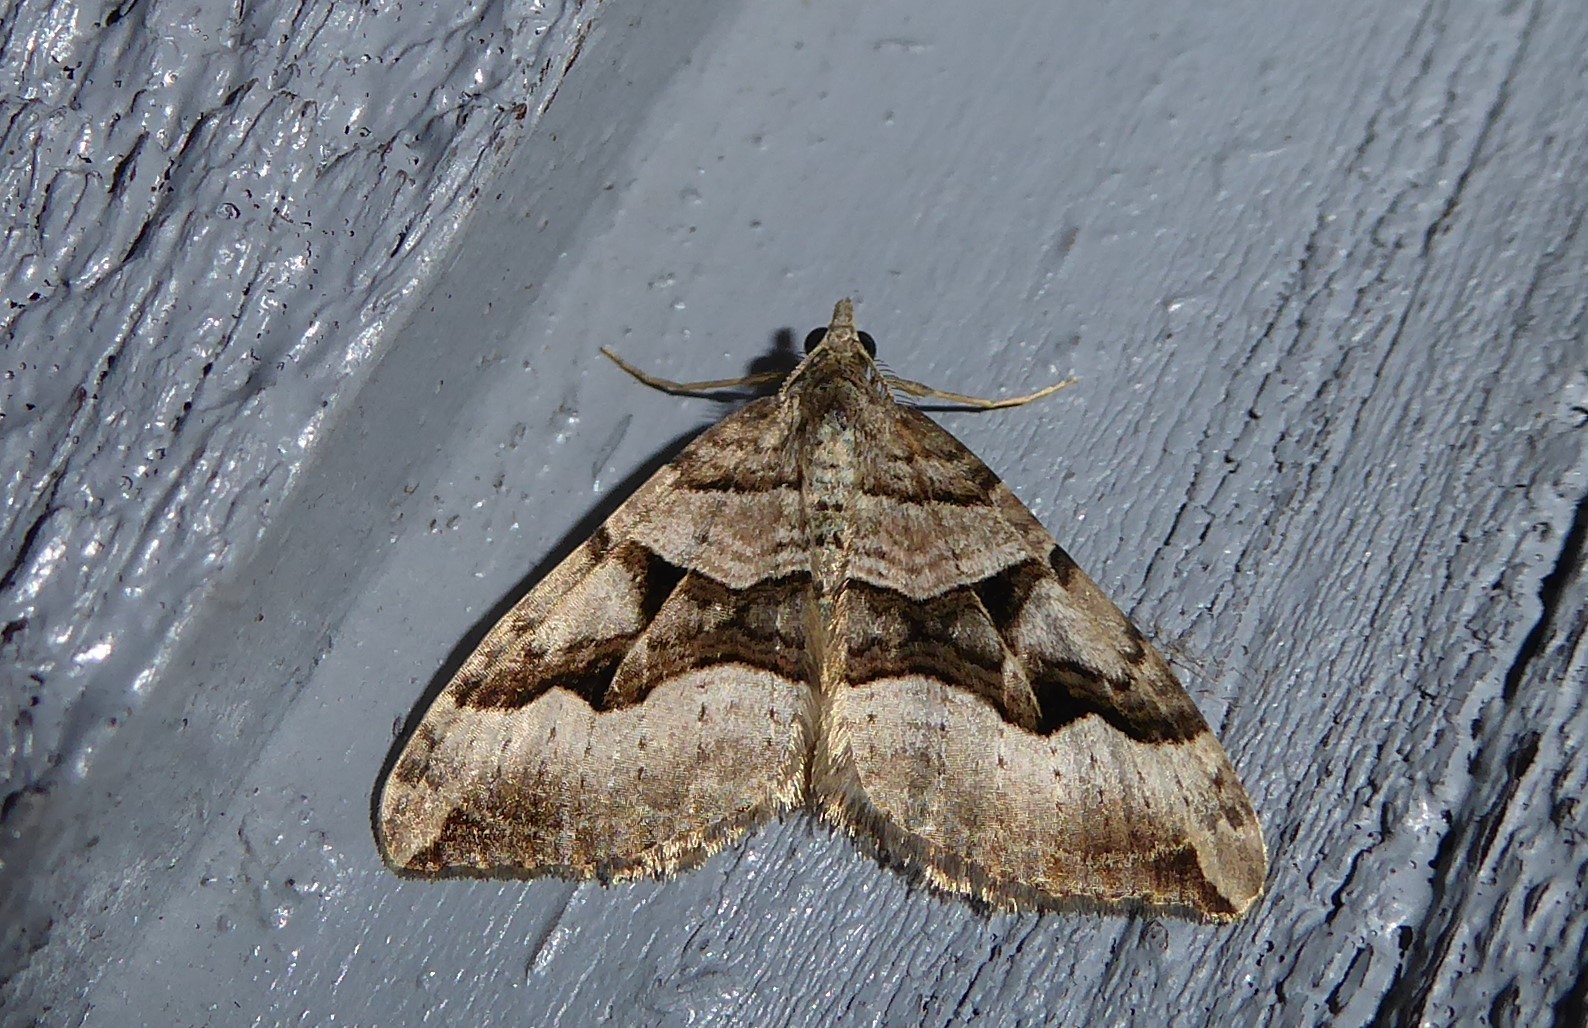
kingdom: Animalia
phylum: Arthropoda
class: Insecta
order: Lepidoptera
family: Geometridae
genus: Xanthorhoe
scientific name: Xanthorhoe semifissata
